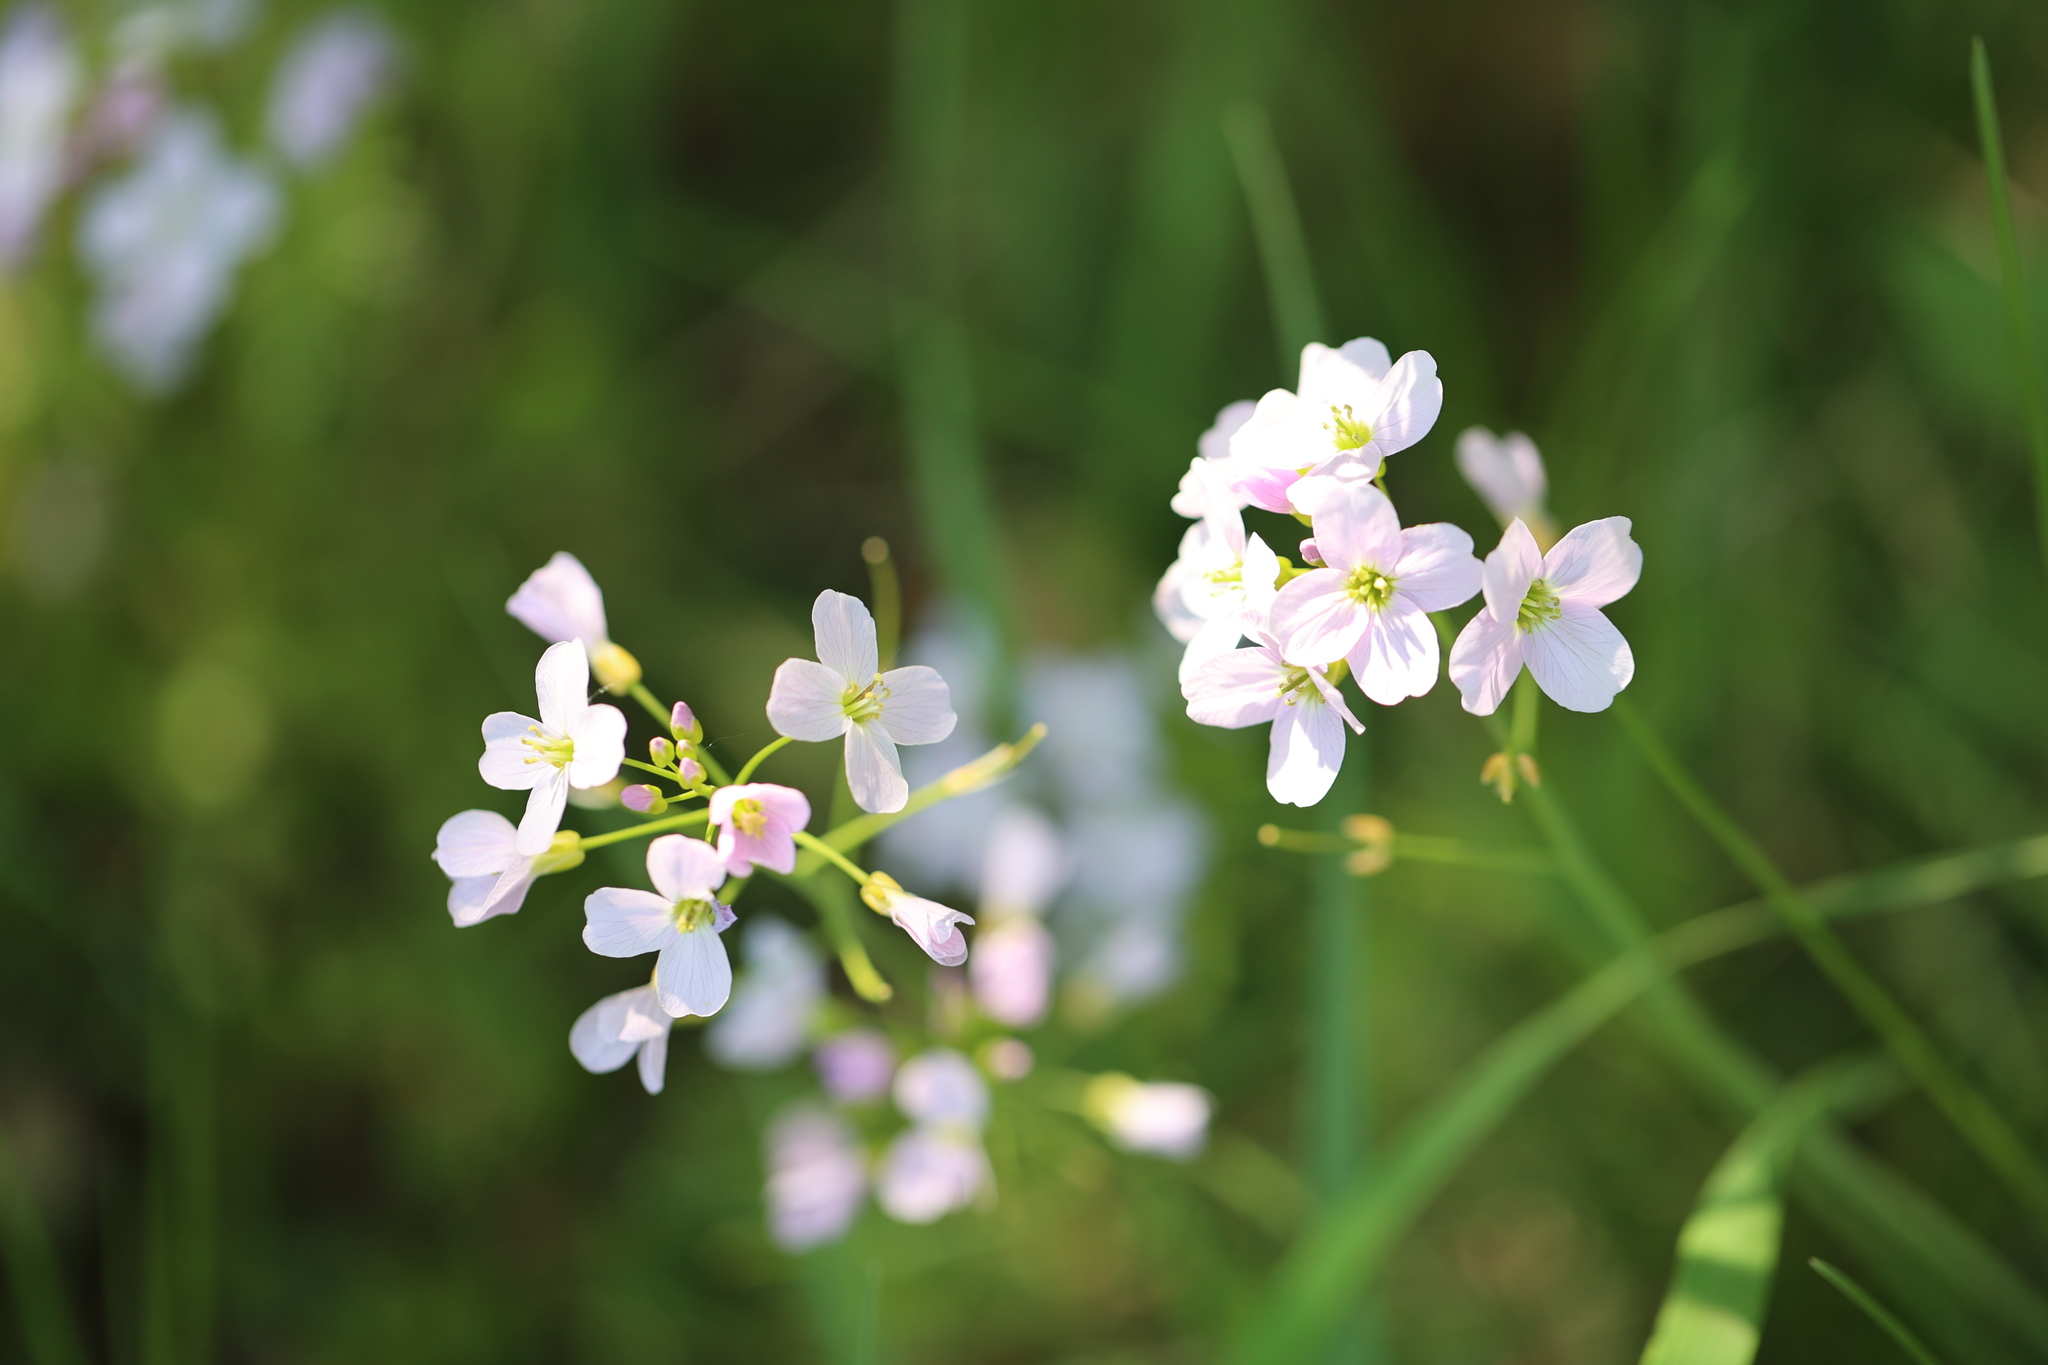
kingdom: Plantae
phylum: Tracheophyta
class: Magnoliopsida
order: Brassicales
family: Brassicaceae
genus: Cardamine
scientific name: Cardamine pratensis
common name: Cuckoo flower
